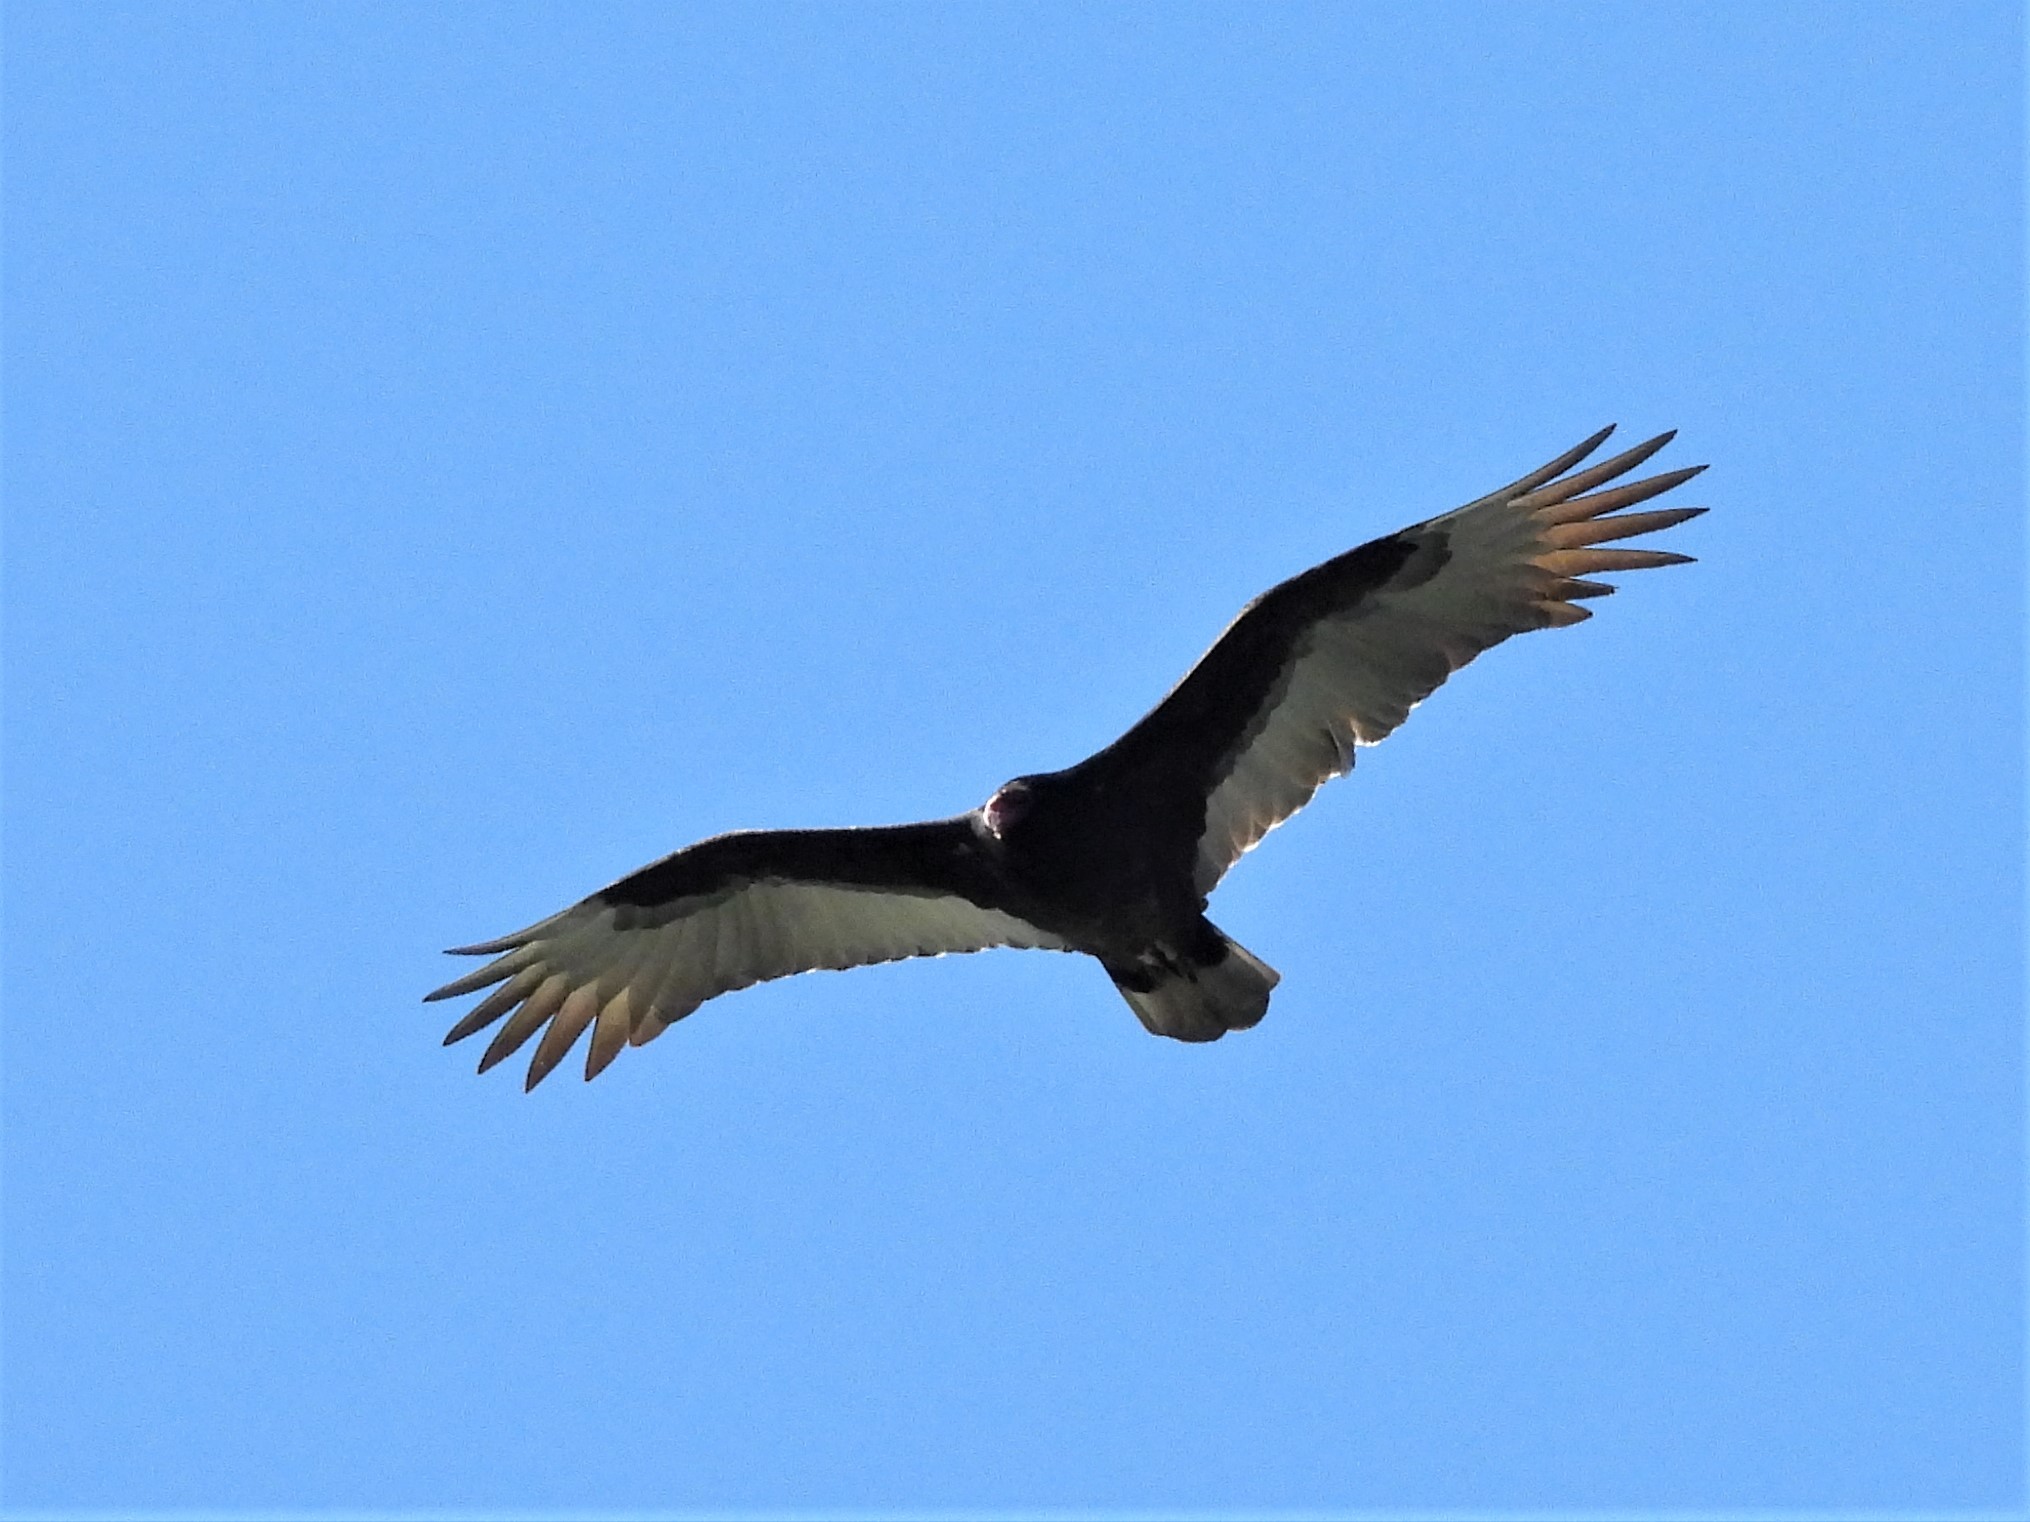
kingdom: Animalia
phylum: Chordata
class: Aves
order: Accipitriformes
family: Cathartidae
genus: Cathartes
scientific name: Cathartes aura
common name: Turkey vulture
